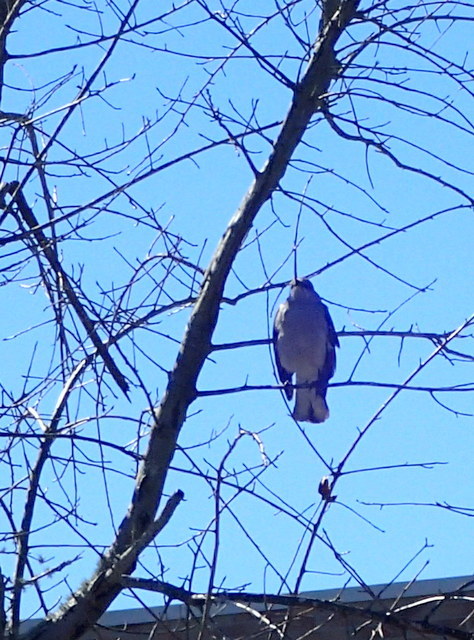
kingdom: Animalia
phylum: Chordata
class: Aves
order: Passeriformes
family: Mimidae
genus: Mimus
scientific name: Mimus polyglottos
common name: Northern mockingbird
